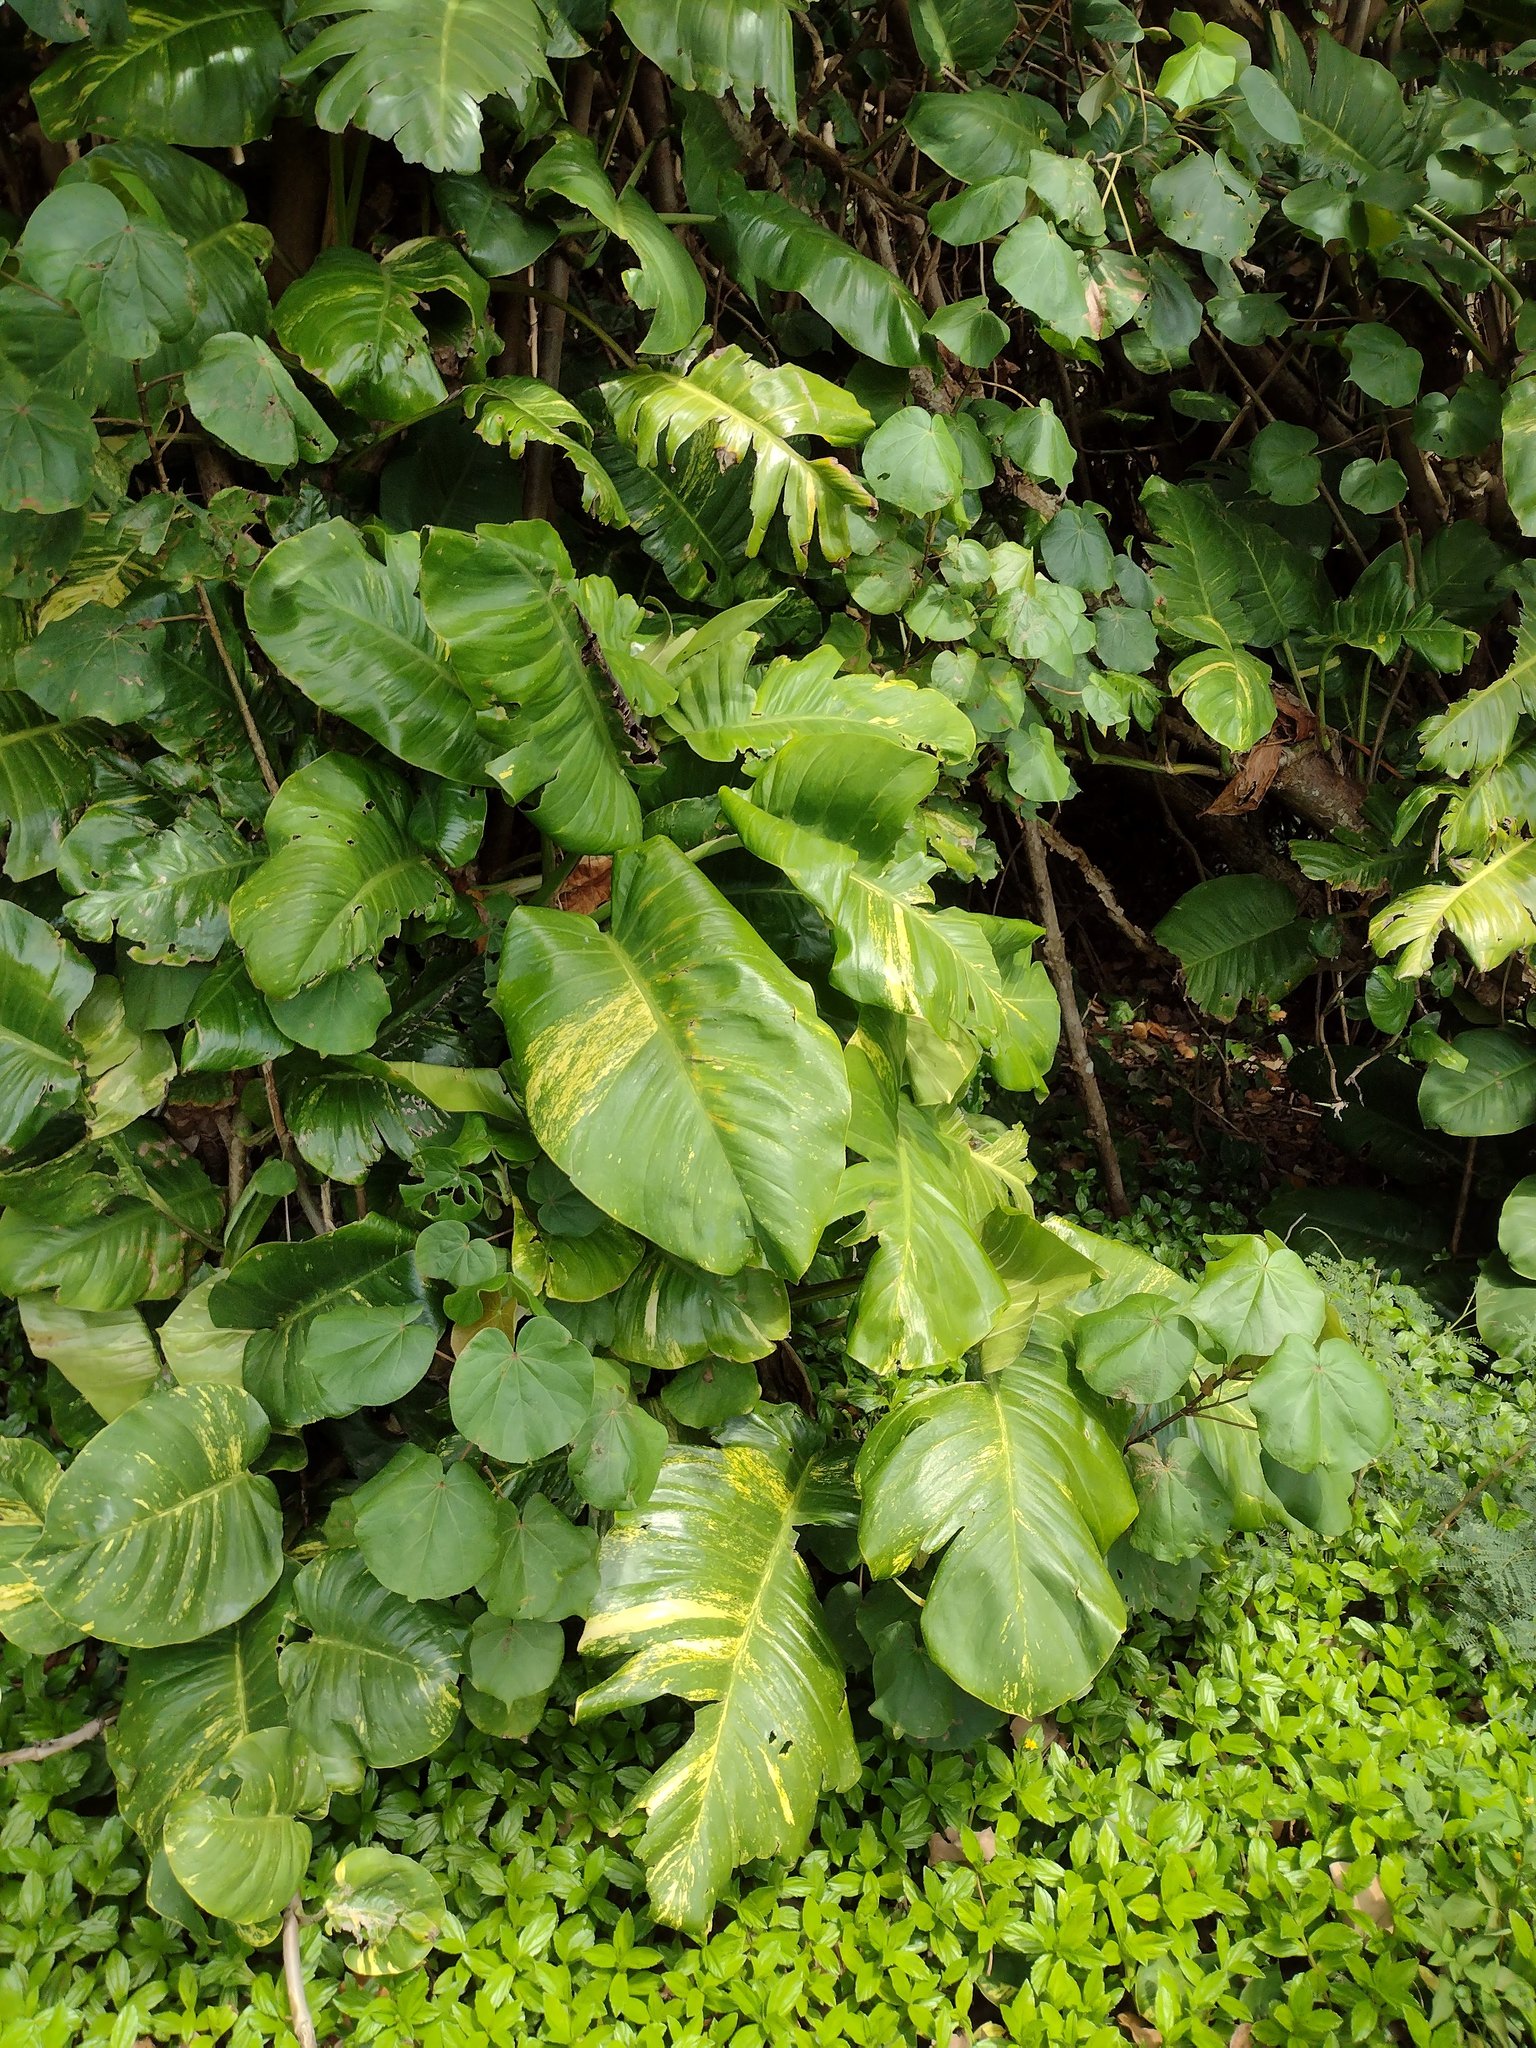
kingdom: Plantae
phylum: Tracheophyta
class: Liliopsida
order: Alismatales
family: Araceae
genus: Epipremnum
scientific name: Epipremnum aureum
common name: Golden hunter's-robe
